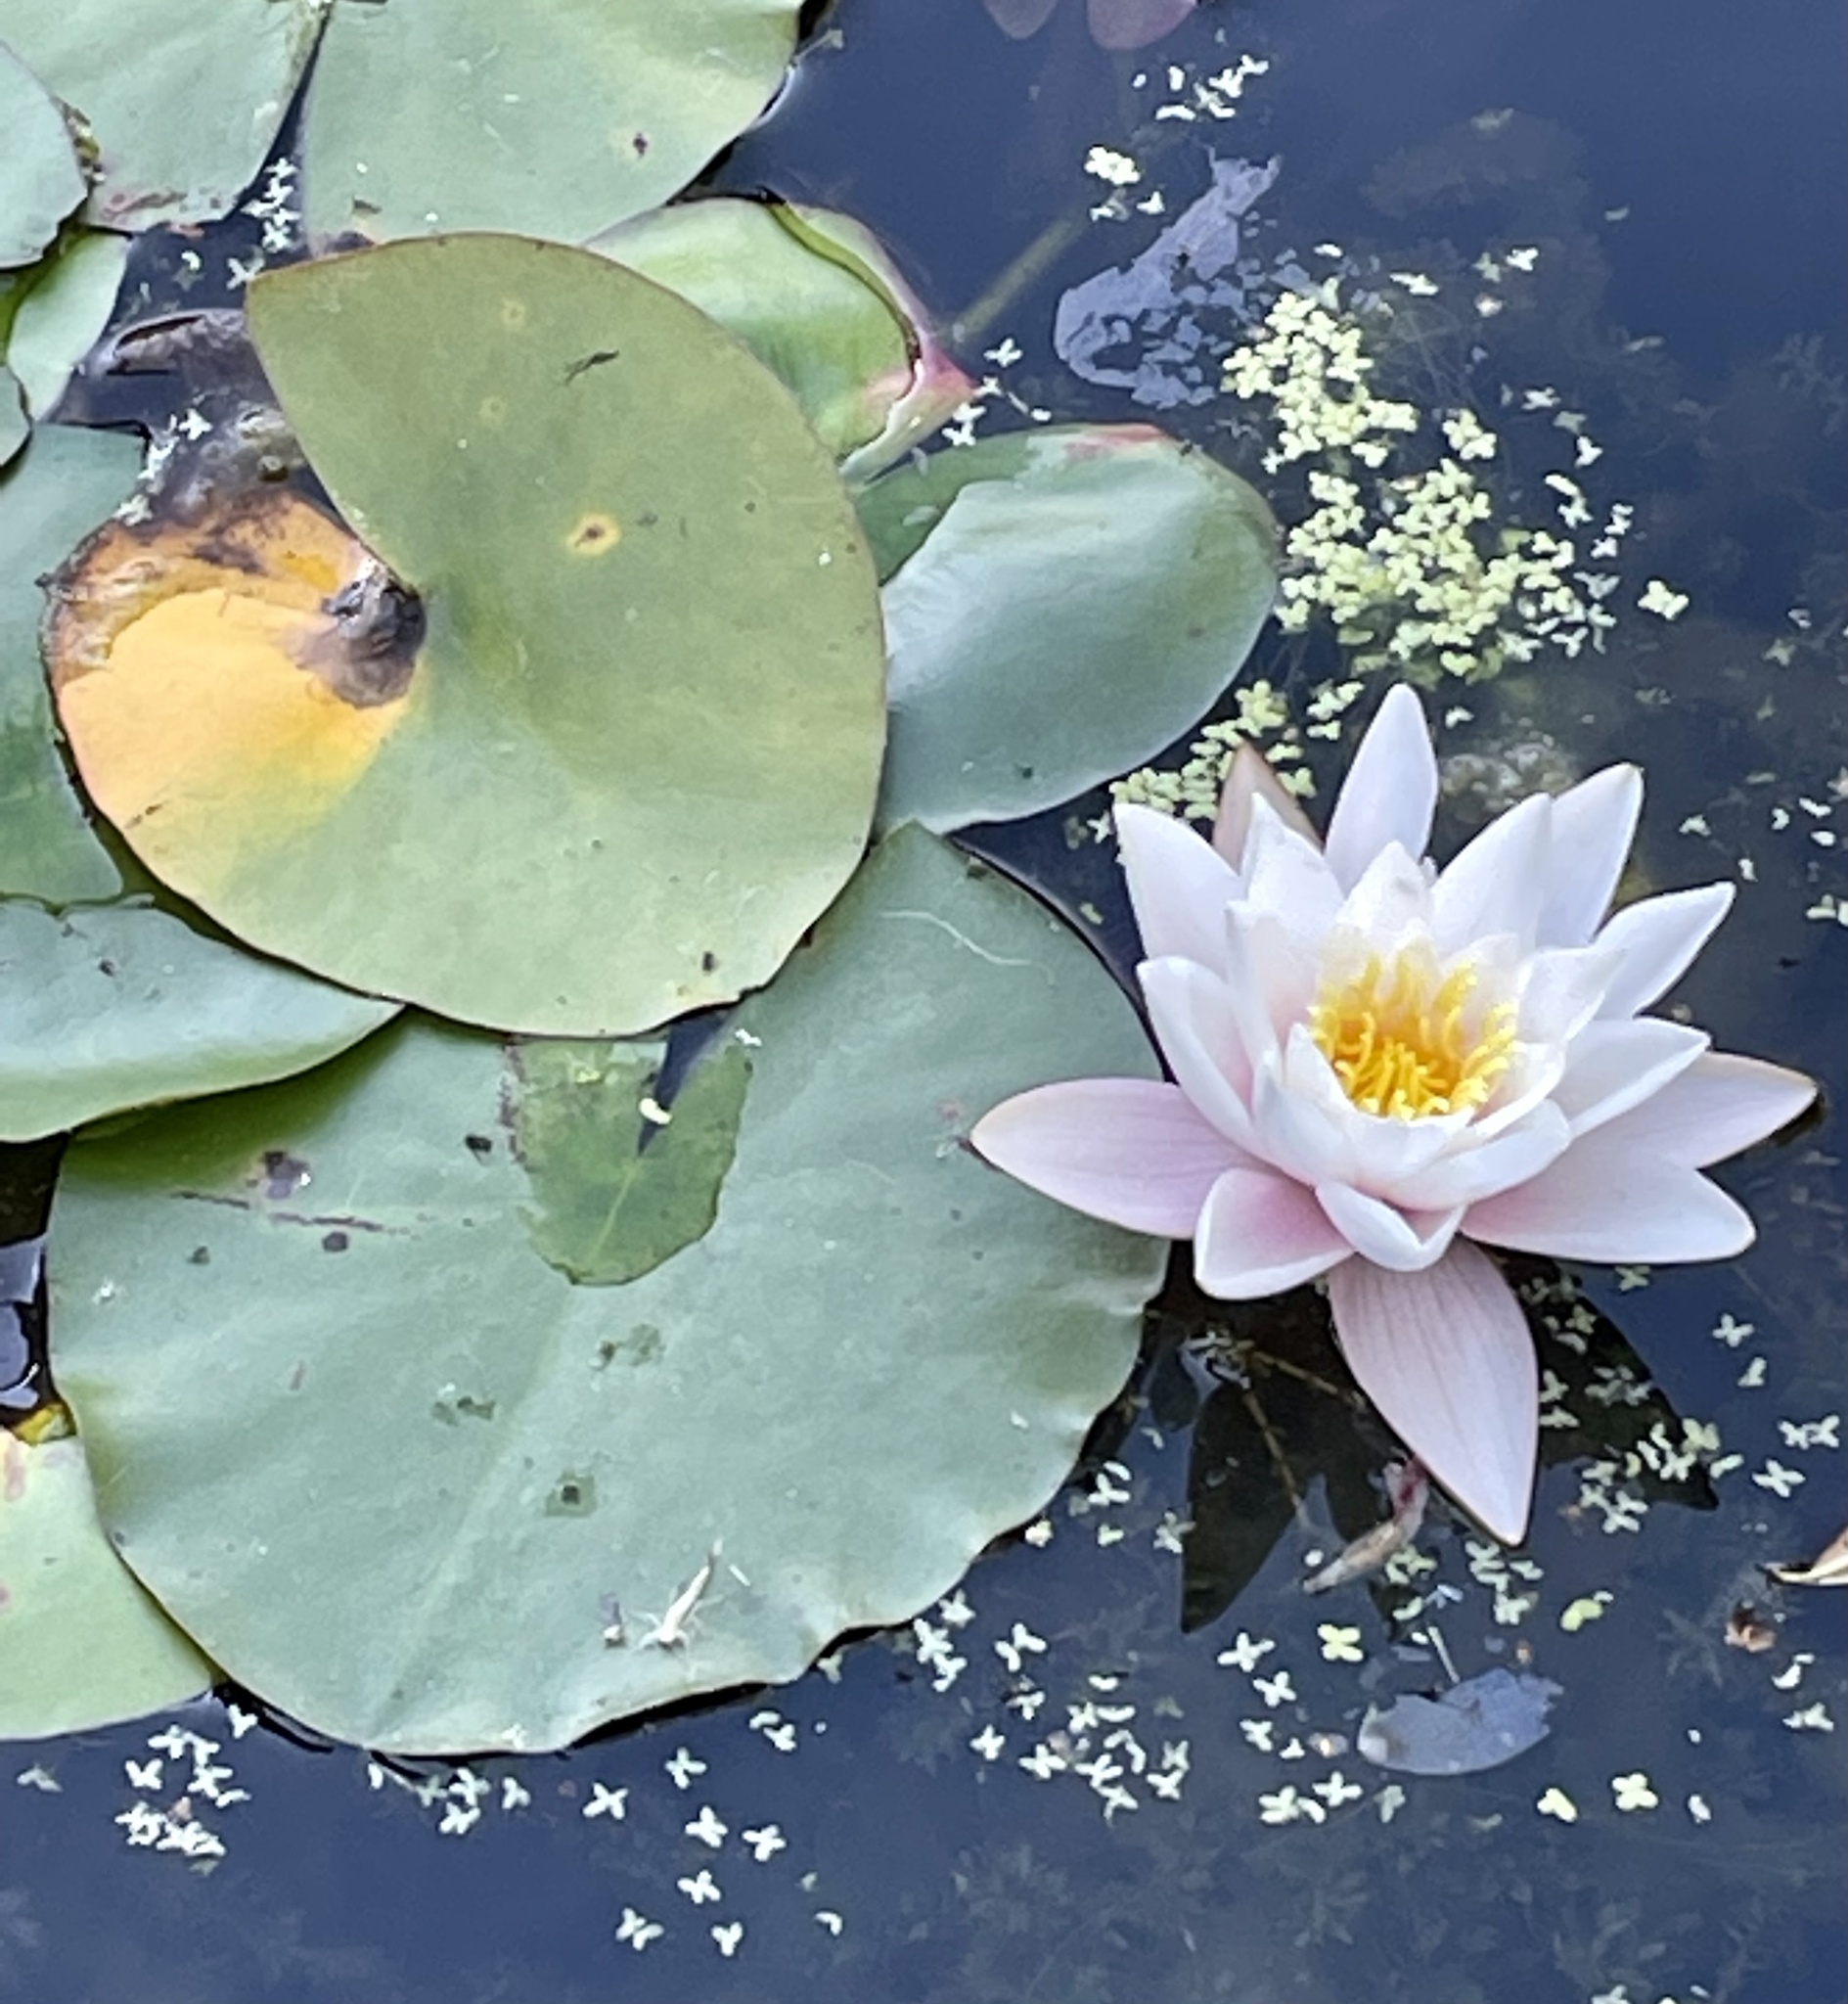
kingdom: Plantae
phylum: Tracheophyta
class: Magnoliopsida
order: Nymphaeales
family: Nymphaeaceae
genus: Nymphaea
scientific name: Nymphaea odorata
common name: Fragrant water-lily
